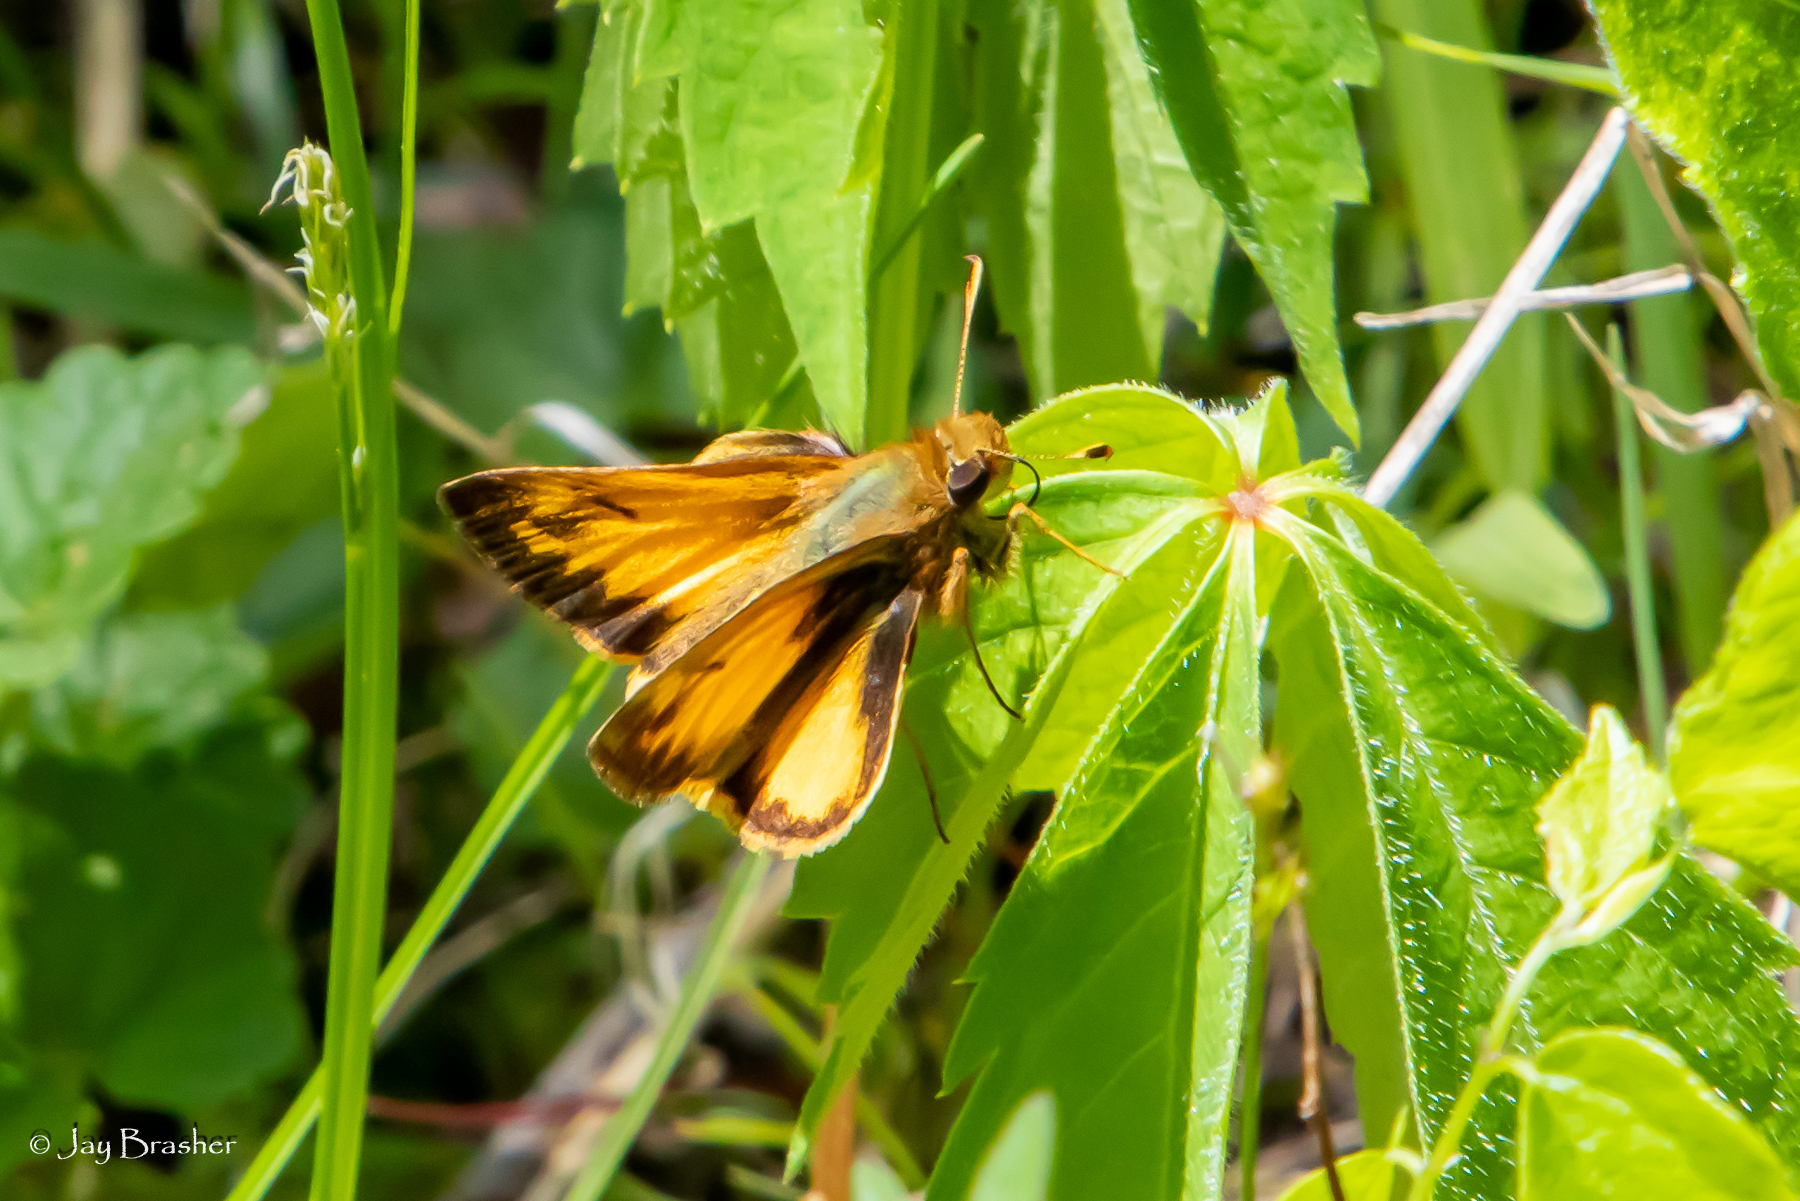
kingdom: Animalia
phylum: Arthropoda
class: Insecta
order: Lepidoptera
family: Hesperiidae
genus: Lon
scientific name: Lon zabulon
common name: Zabulon skipper
